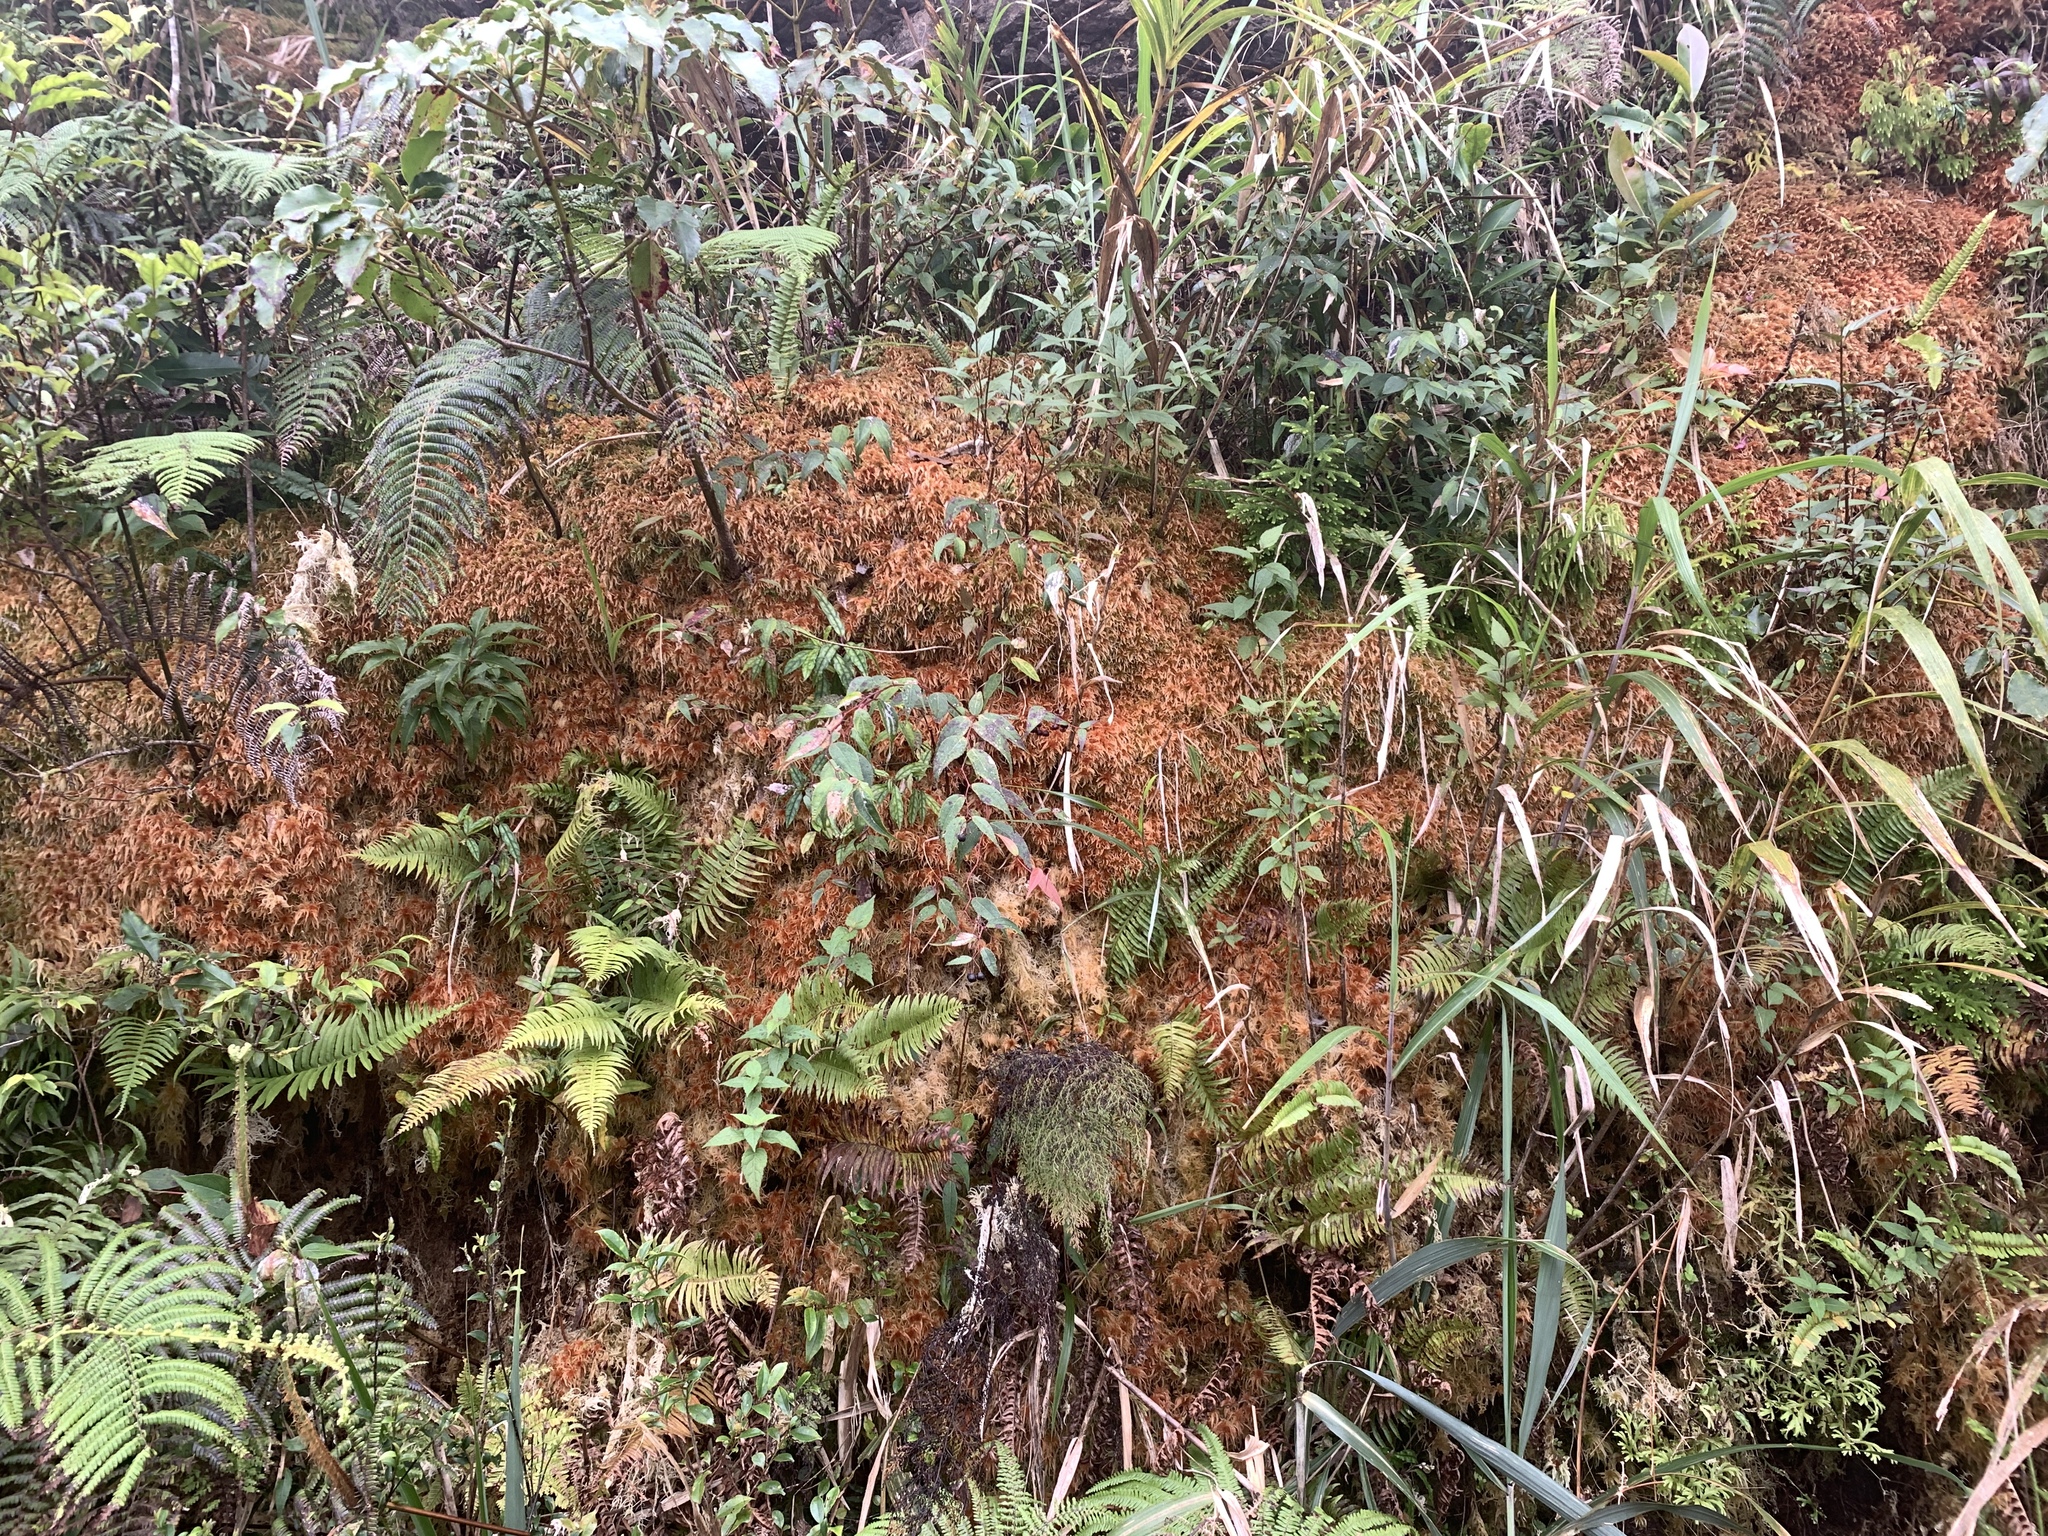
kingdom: Plantae
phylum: Bryophyta
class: Sphagnopsida
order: Sphagnales
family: Sphagnaceae
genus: Sphagnum
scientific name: Sphagnum junghuhnianum
